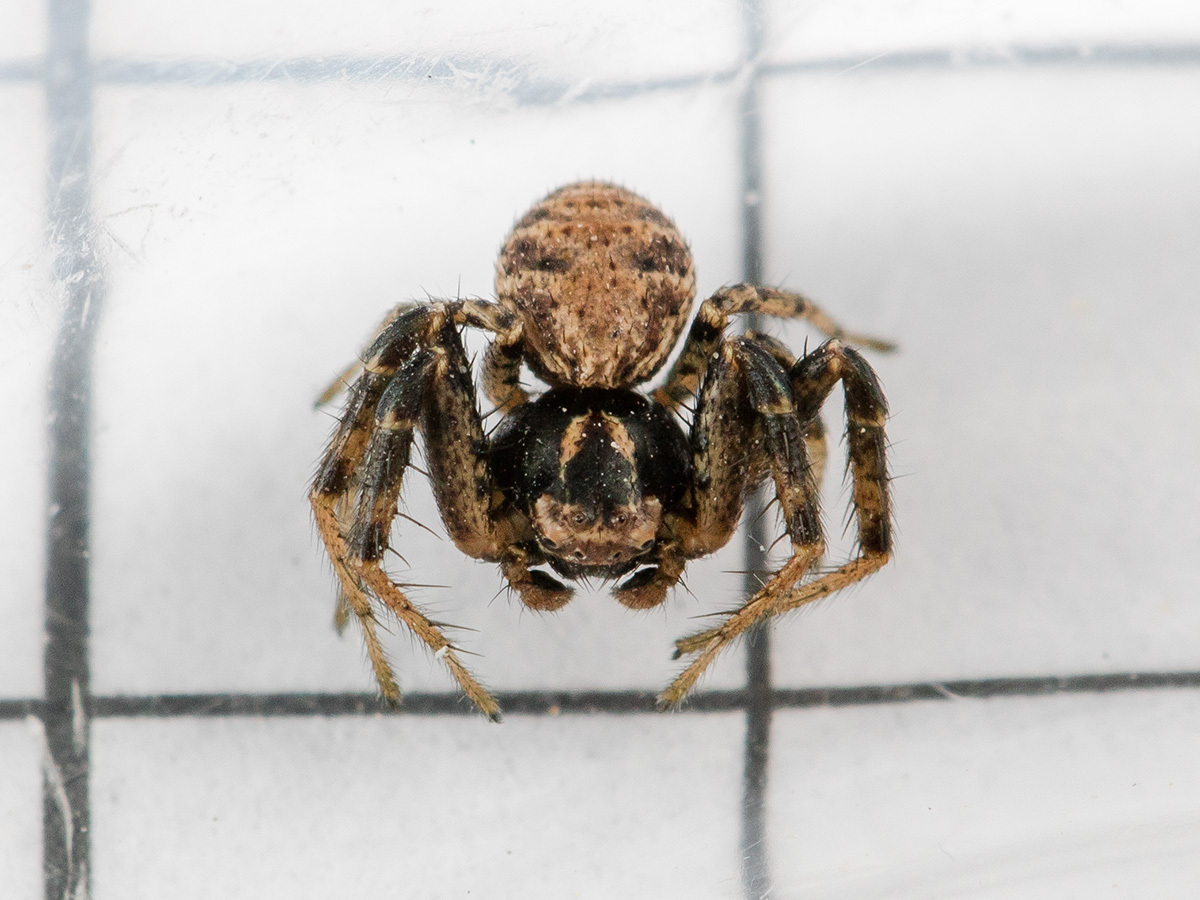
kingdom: Animalia
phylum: Arthropoda
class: Arachnida
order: Araneae
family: Thomisidae
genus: Psammitis
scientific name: Psammitis minor
